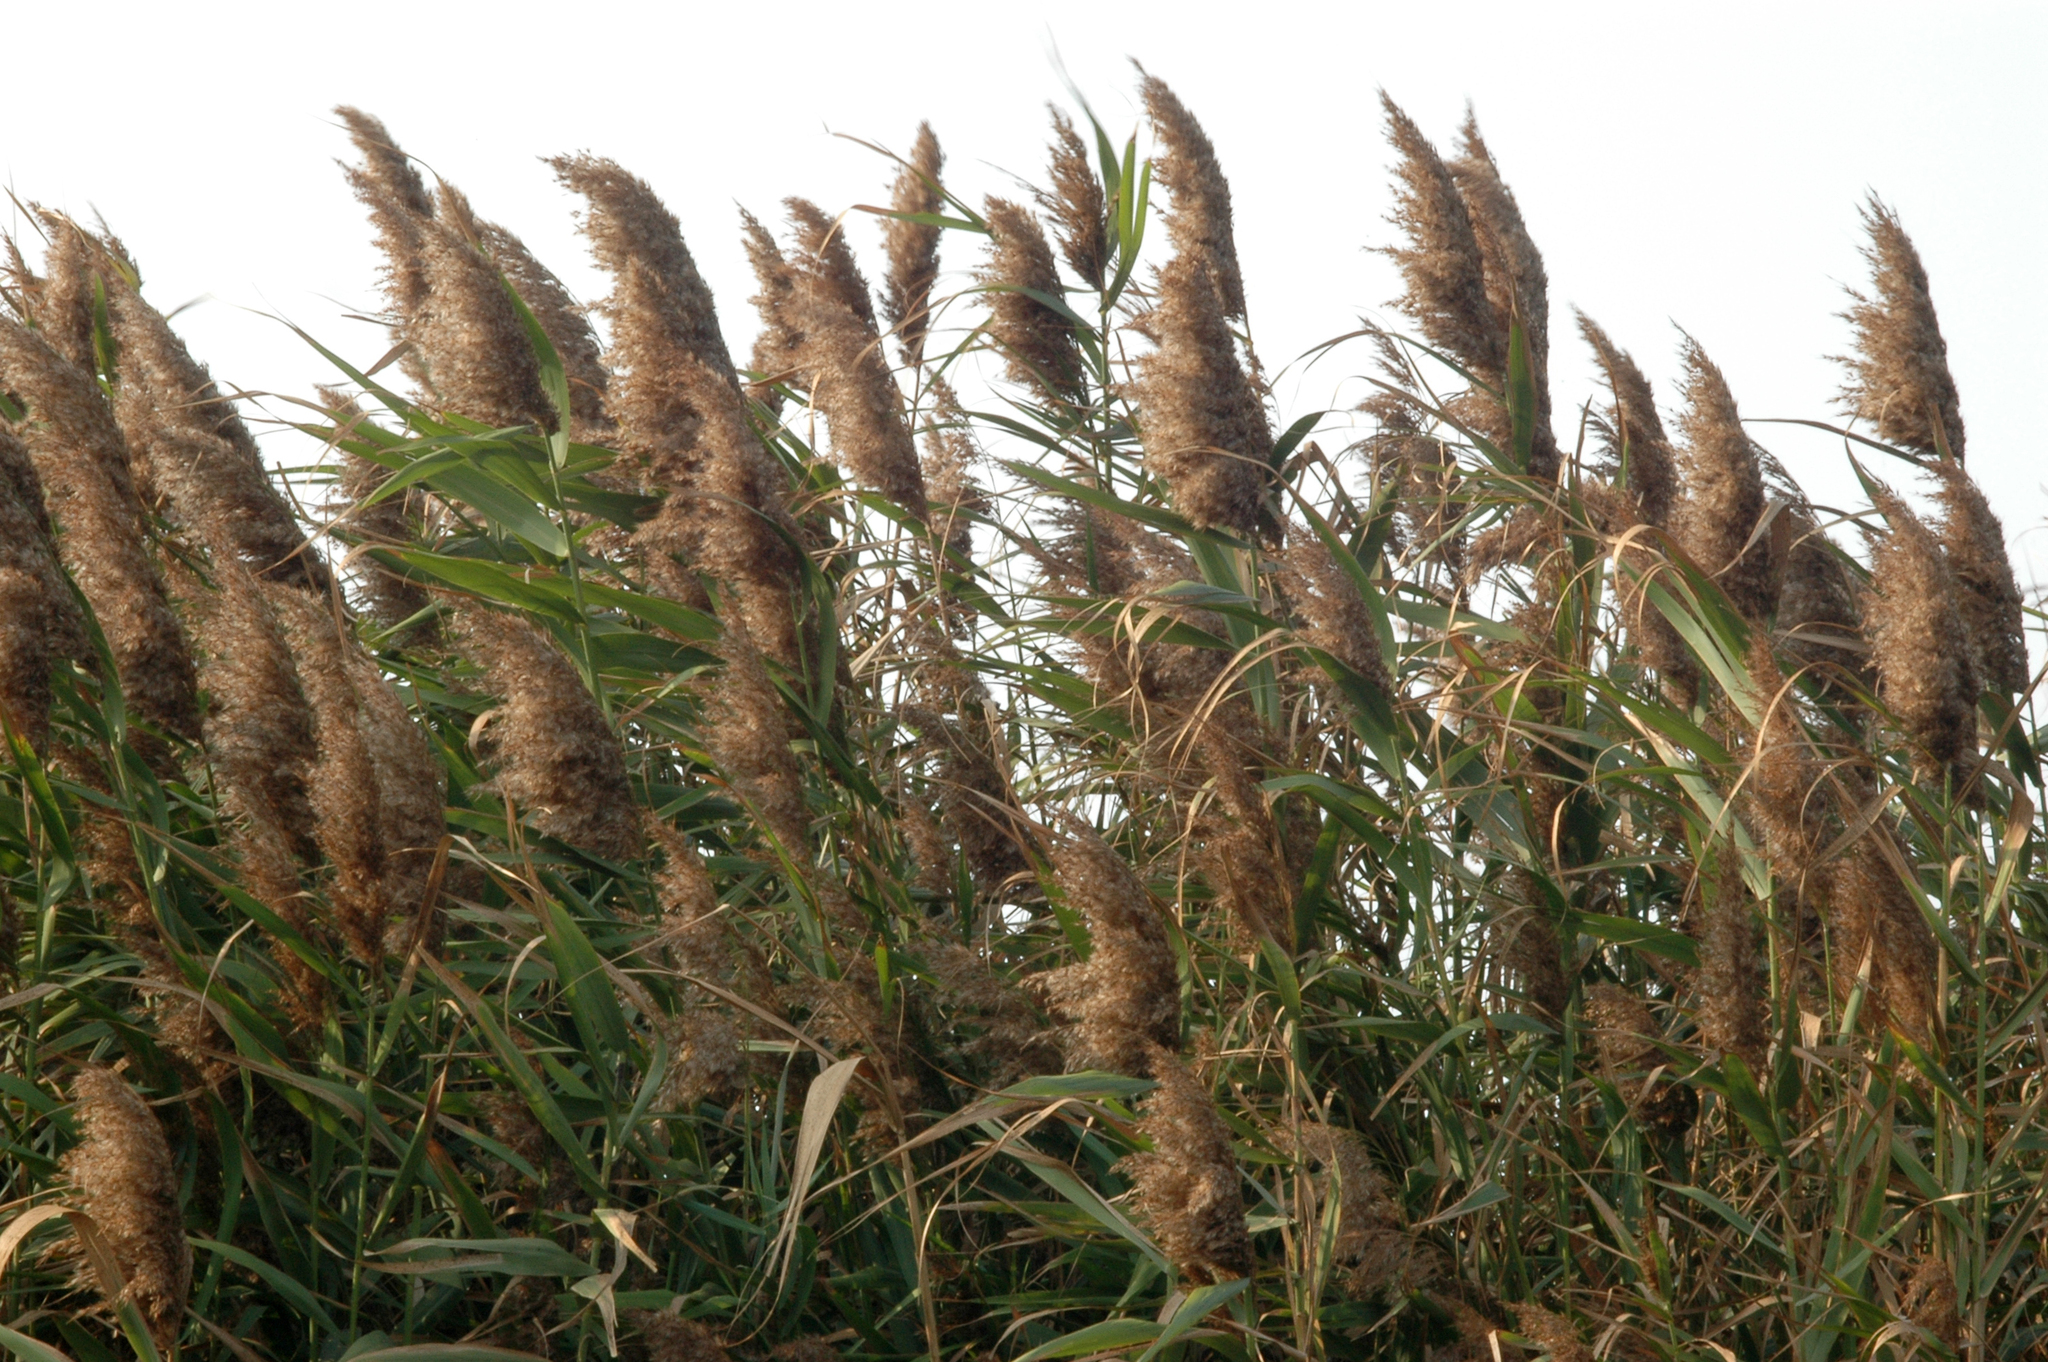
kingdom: Plantae
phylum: Tracheophyta
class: Liliopsida
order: Poales
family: Poaceae
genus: Phragmites
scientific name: Phragmites australis
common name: Common reed
